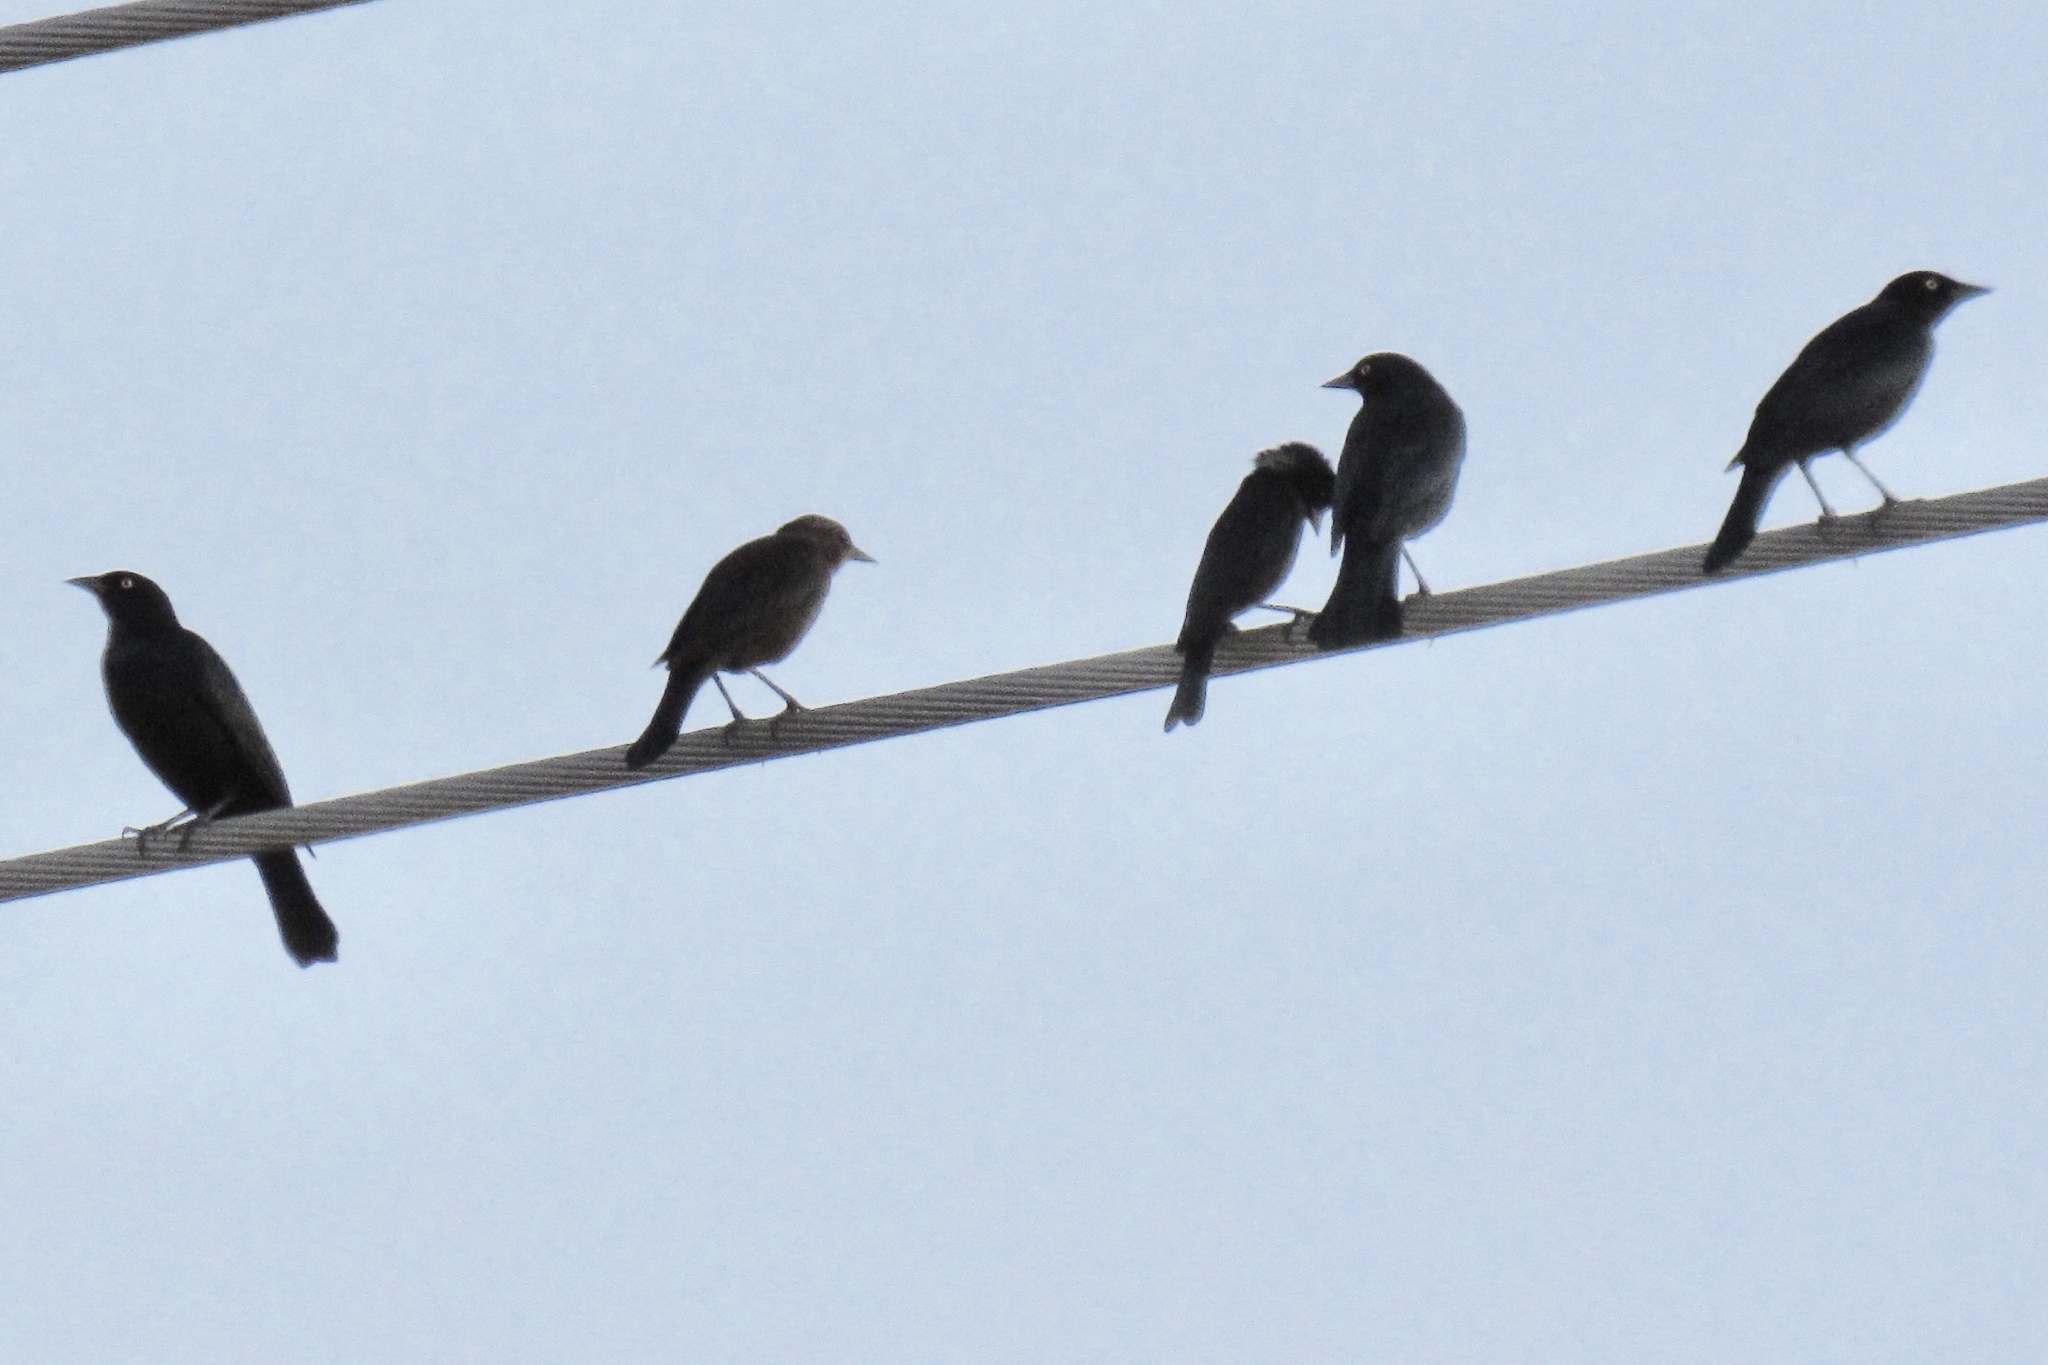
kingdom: Animalia
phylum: Chordata
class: Aves
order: Passeriformes
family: Icteridae
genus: Euphagus
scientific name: Euphagus cyanocephalus
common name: Brewer's blackbird
